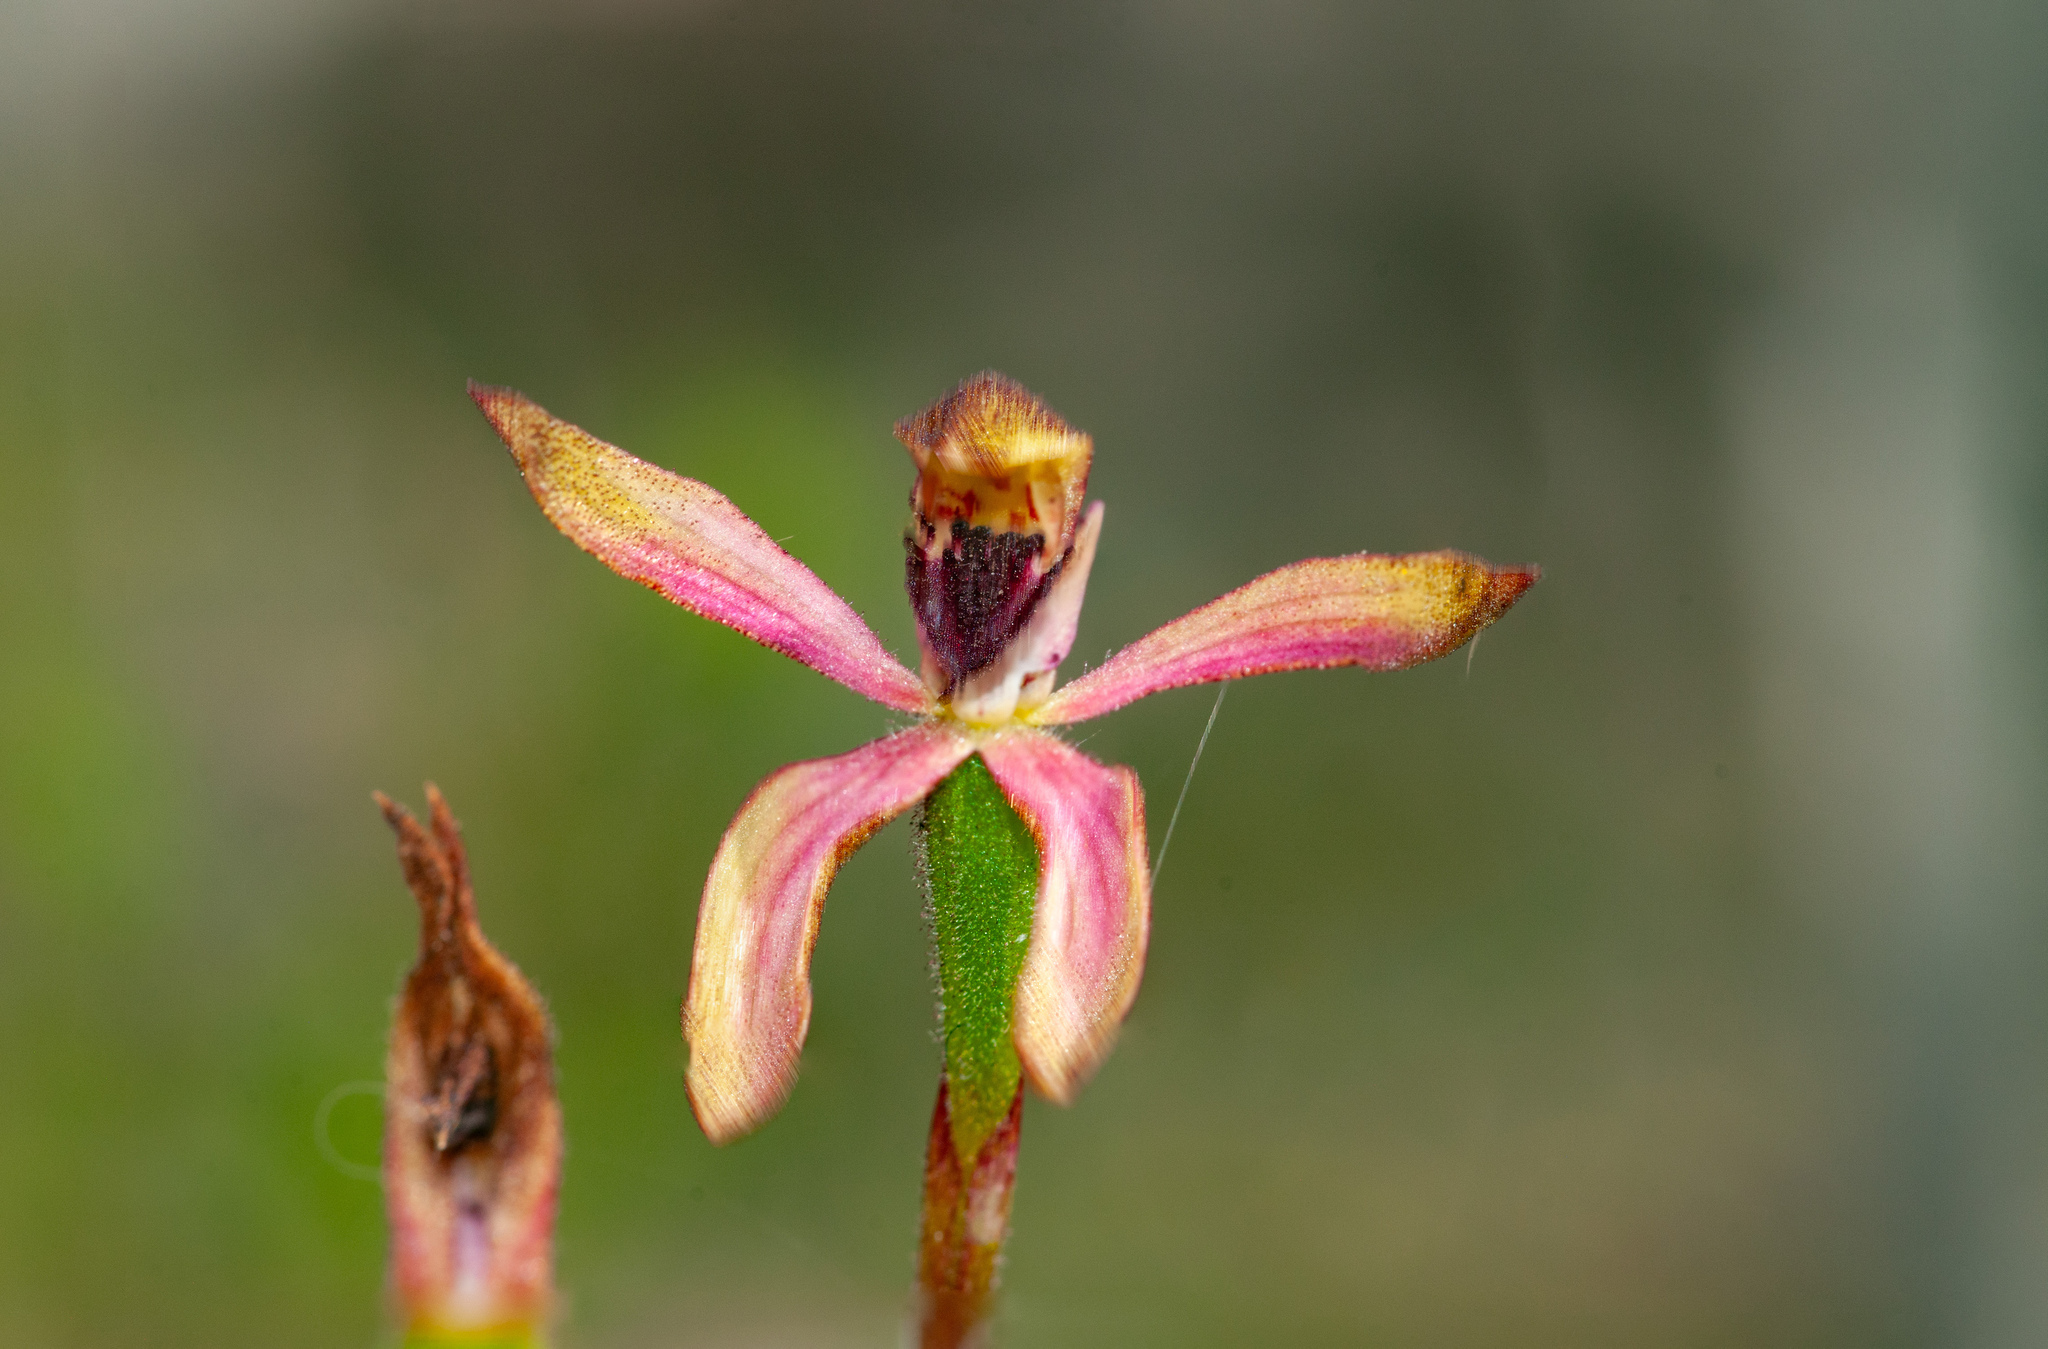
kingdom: Plantae
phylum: Tracheophyta
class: Liliopsida
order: Asparagales
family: Orchidaceae
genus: Caladenia
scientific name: Caladenia iridescens
